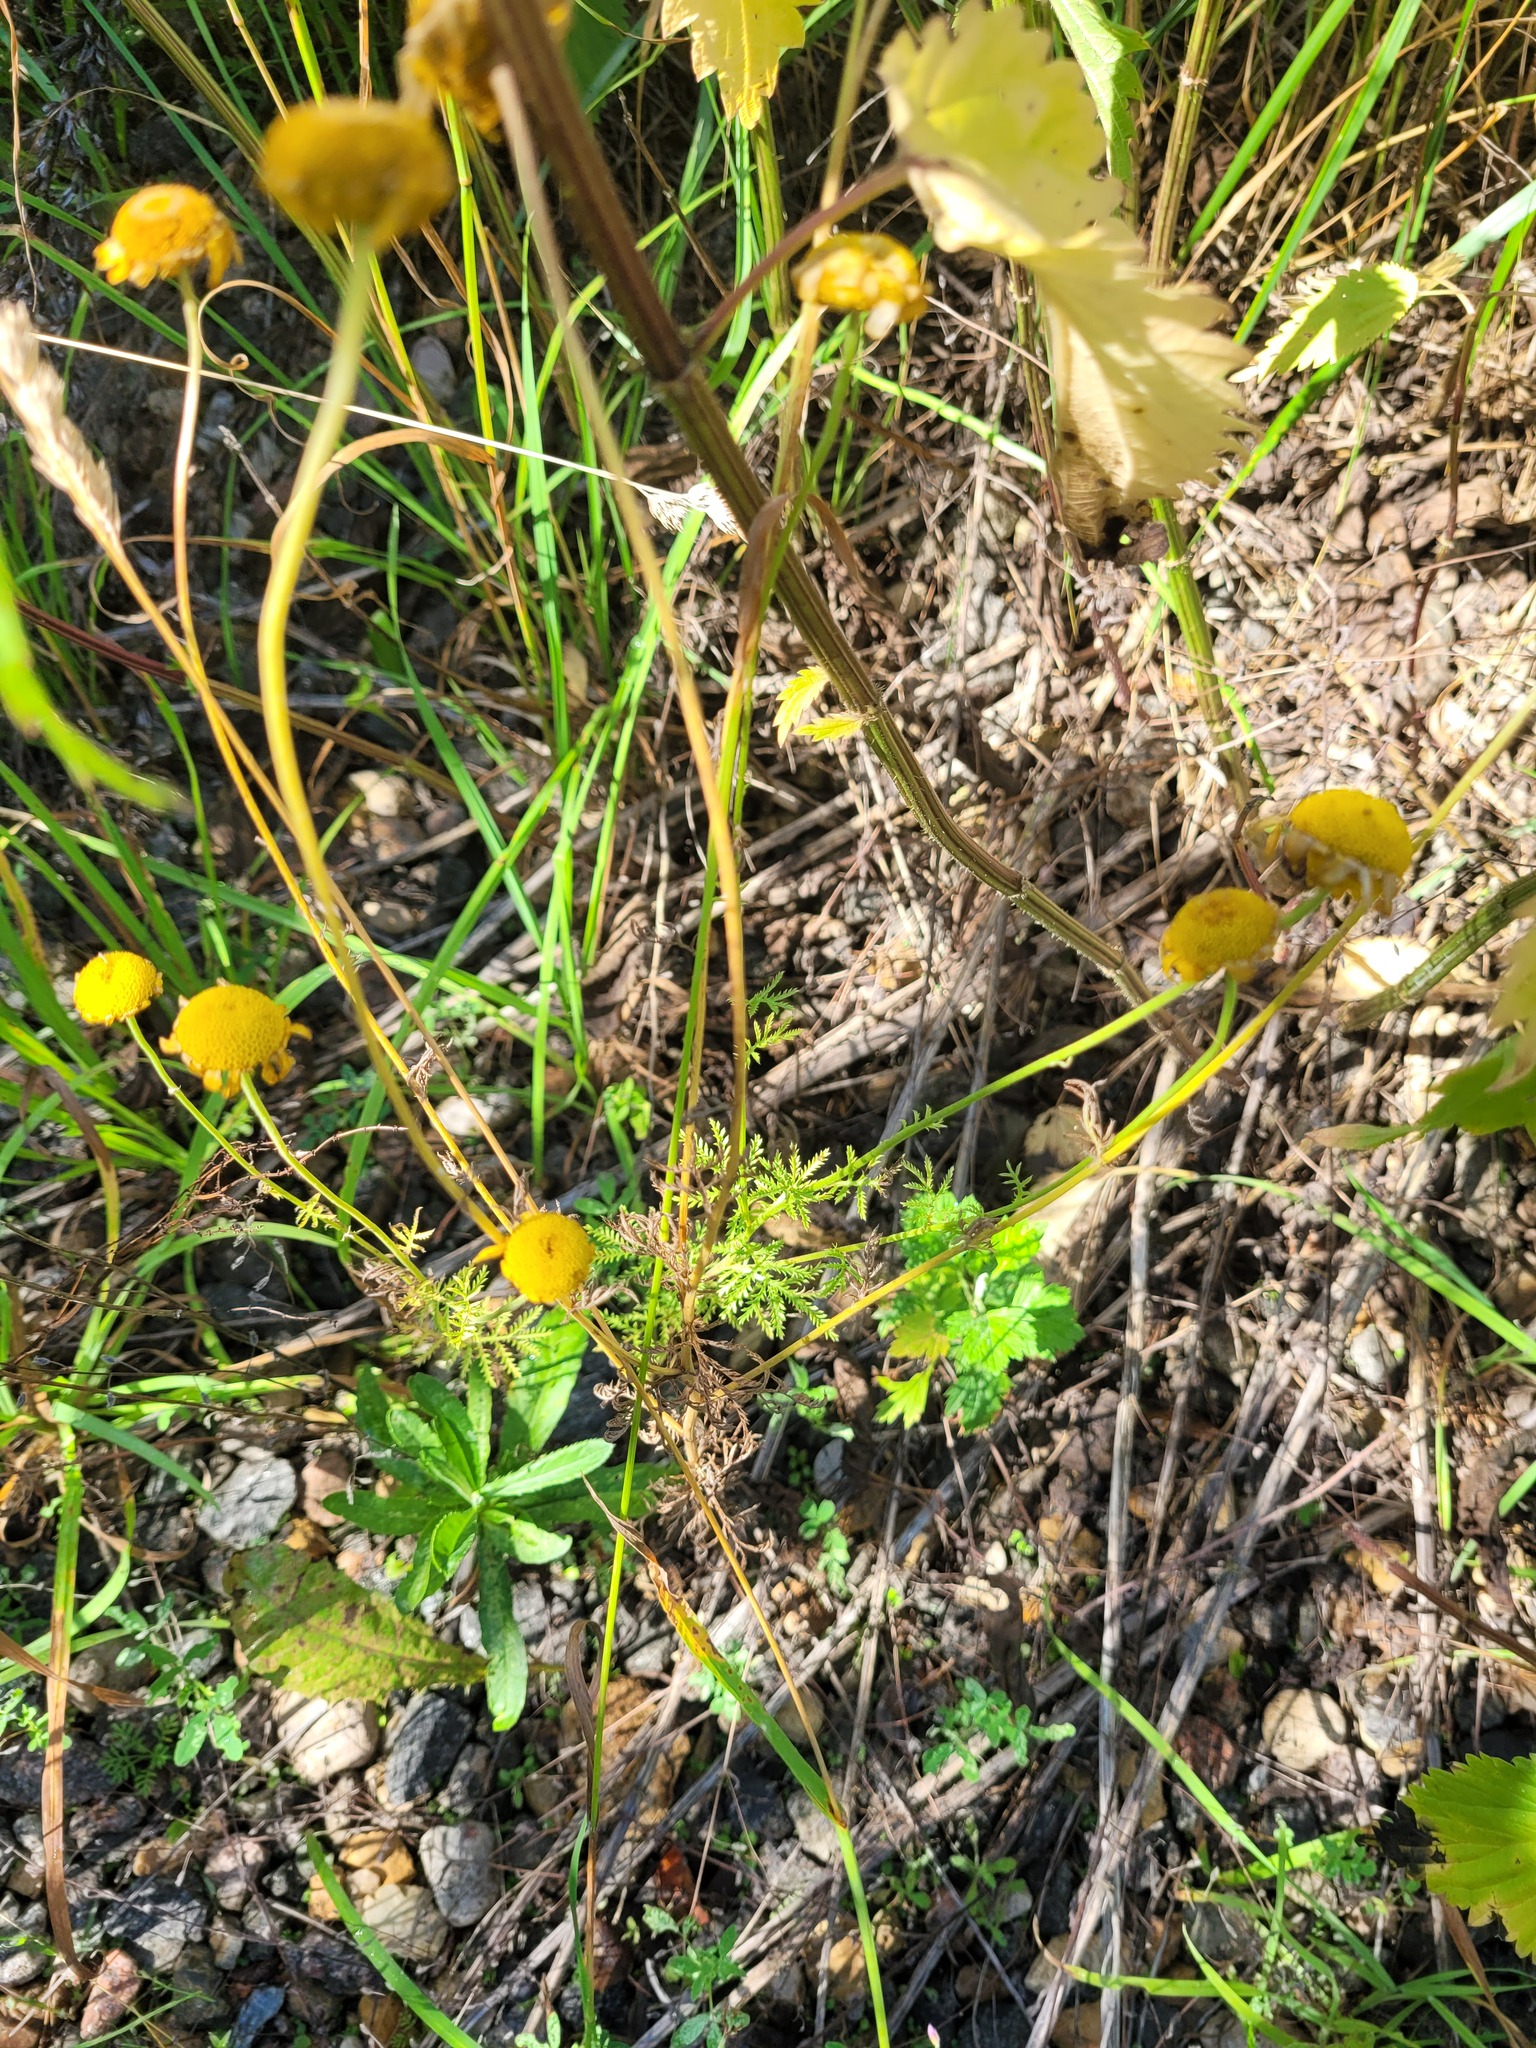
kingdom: Plantae
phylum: Tracheophyta
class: Magnoliopsida
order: Asterales
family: Asteraceae
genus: Cota
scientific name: Cota tinctoria
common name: Golden chamomile
